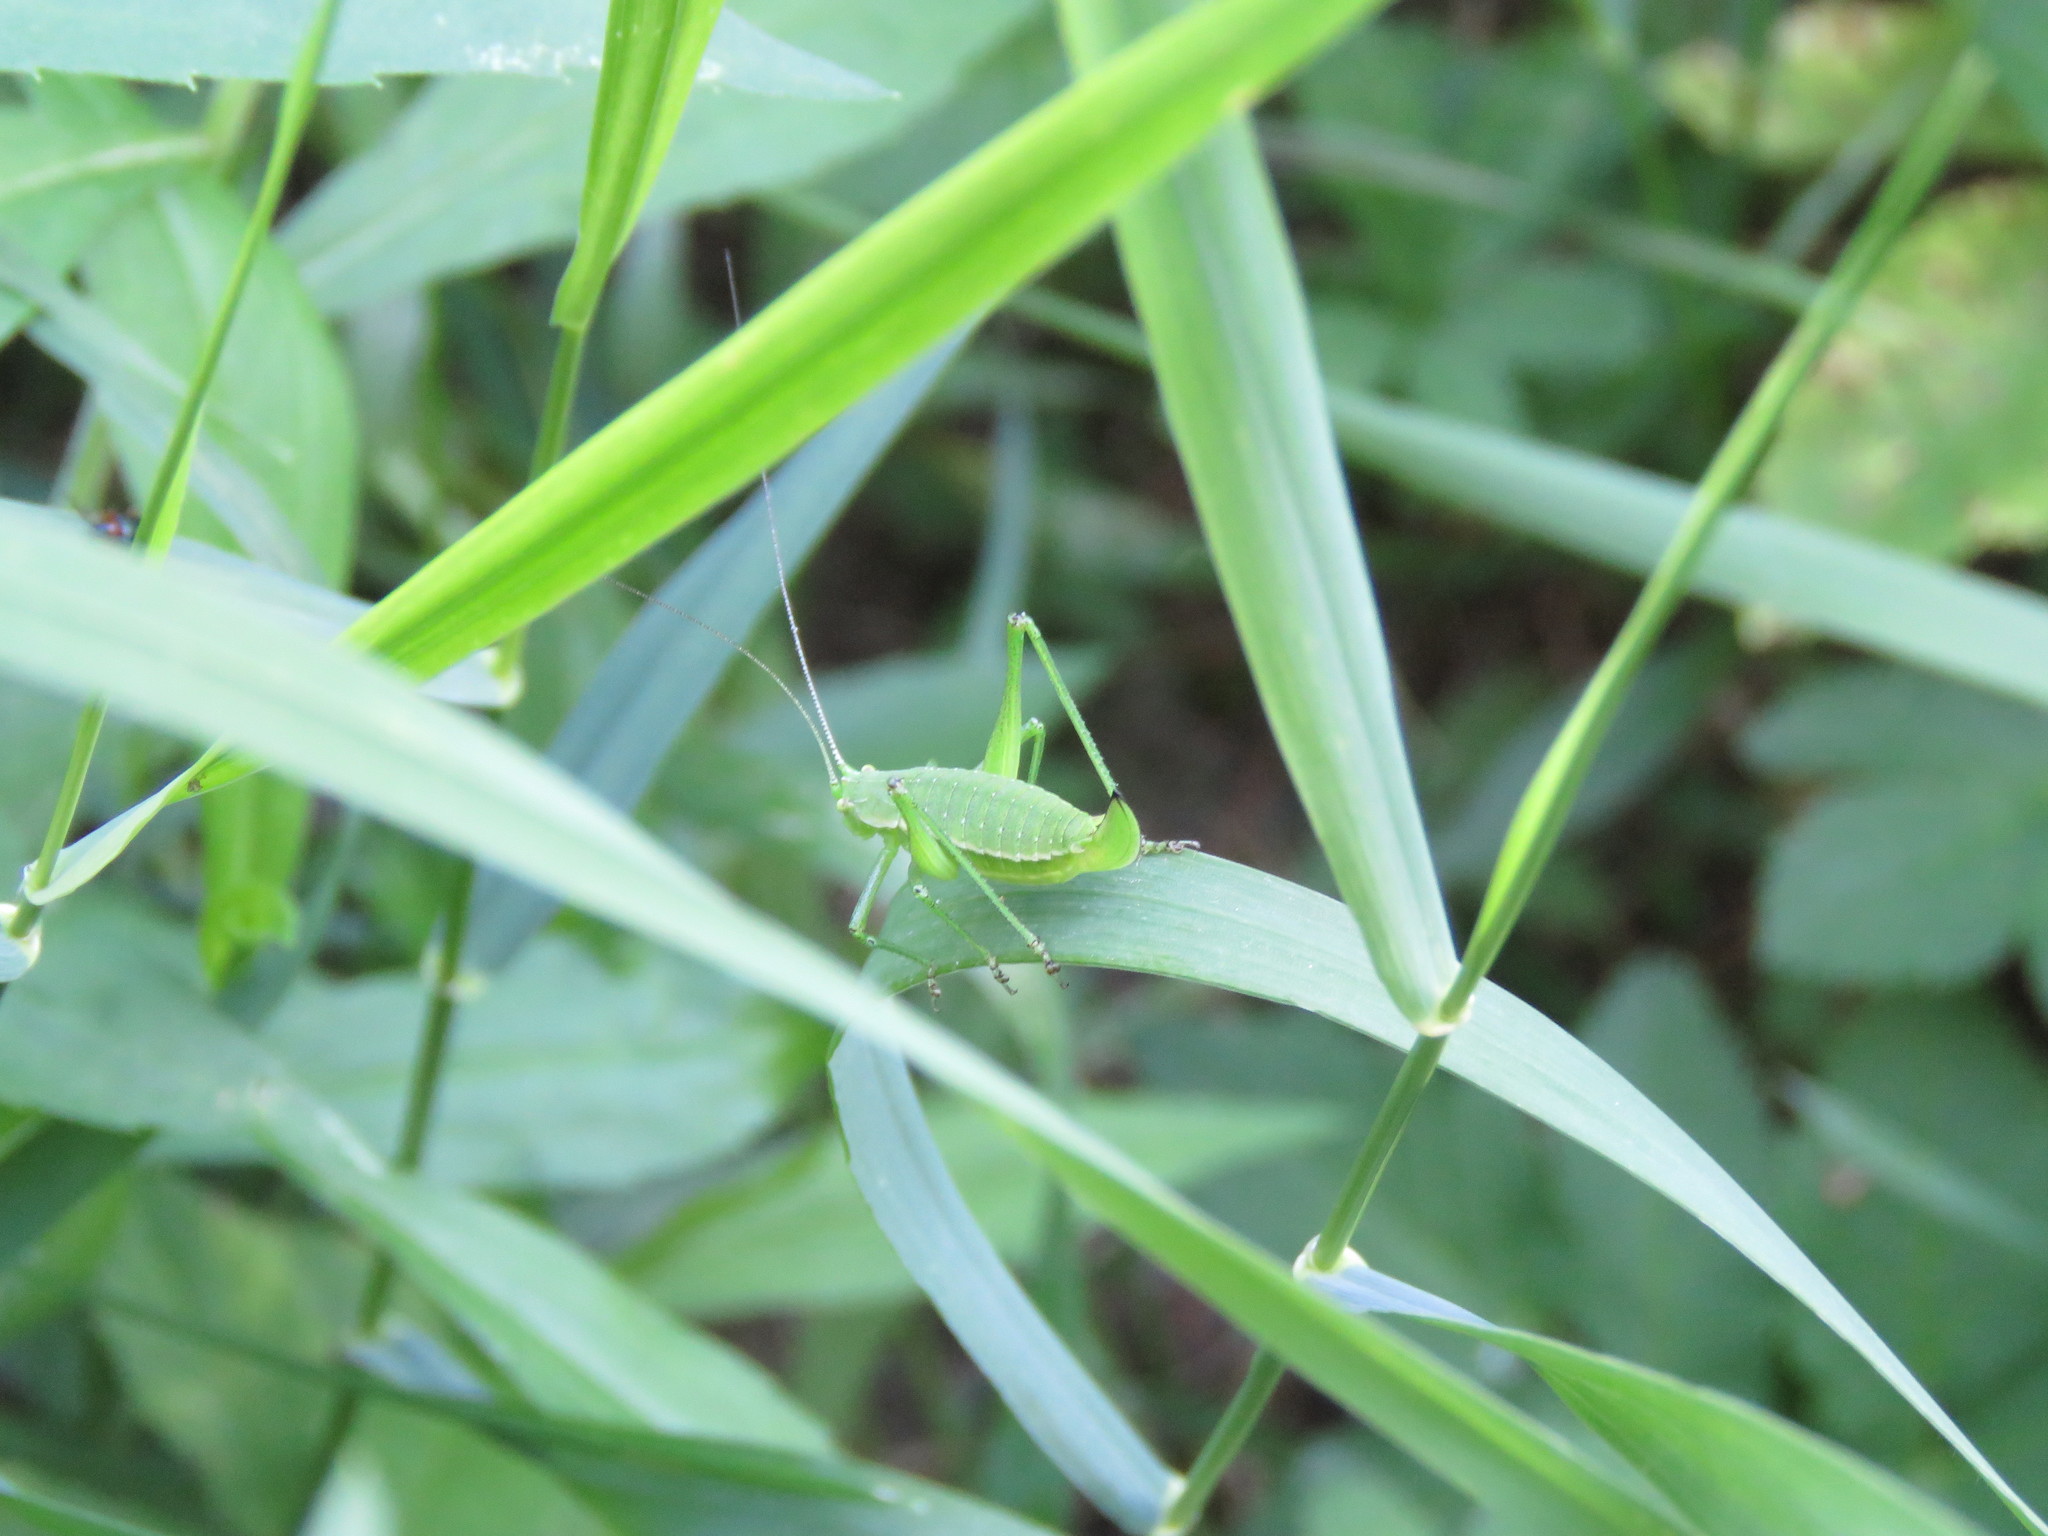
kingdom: Animalia
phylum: Arthropoda
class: Insecta
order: Orthoptera
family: Tettigoniidae
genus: Leptophyes
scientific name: Leptophyes boscii
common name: Balkan speckled bush-cricket
